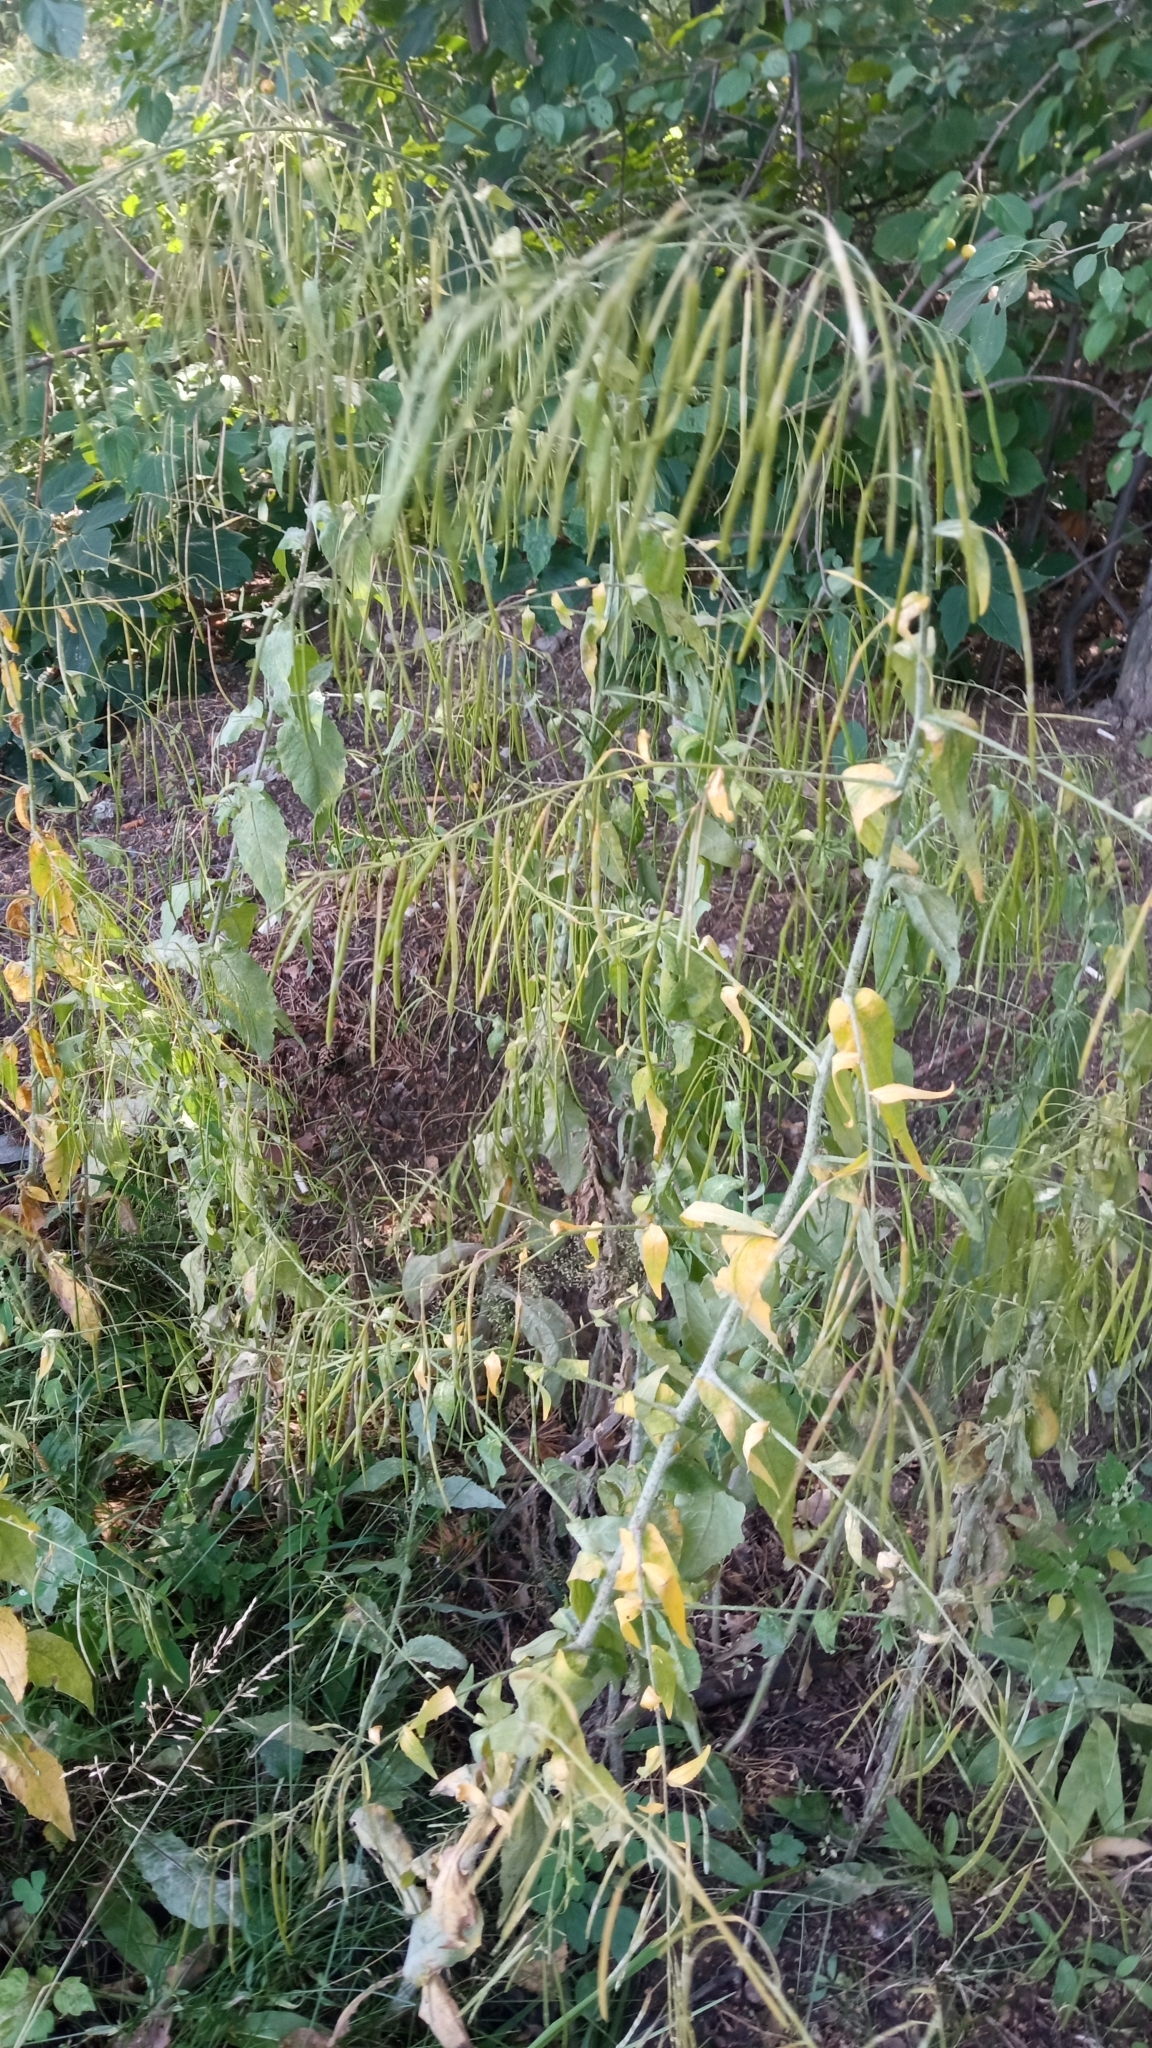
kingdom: Plantae
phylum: Tracheophyta
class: Magnoliopsida
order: Brassicales
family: Brassicaceae
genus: Catolobus
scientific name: Catolobus pendulus
